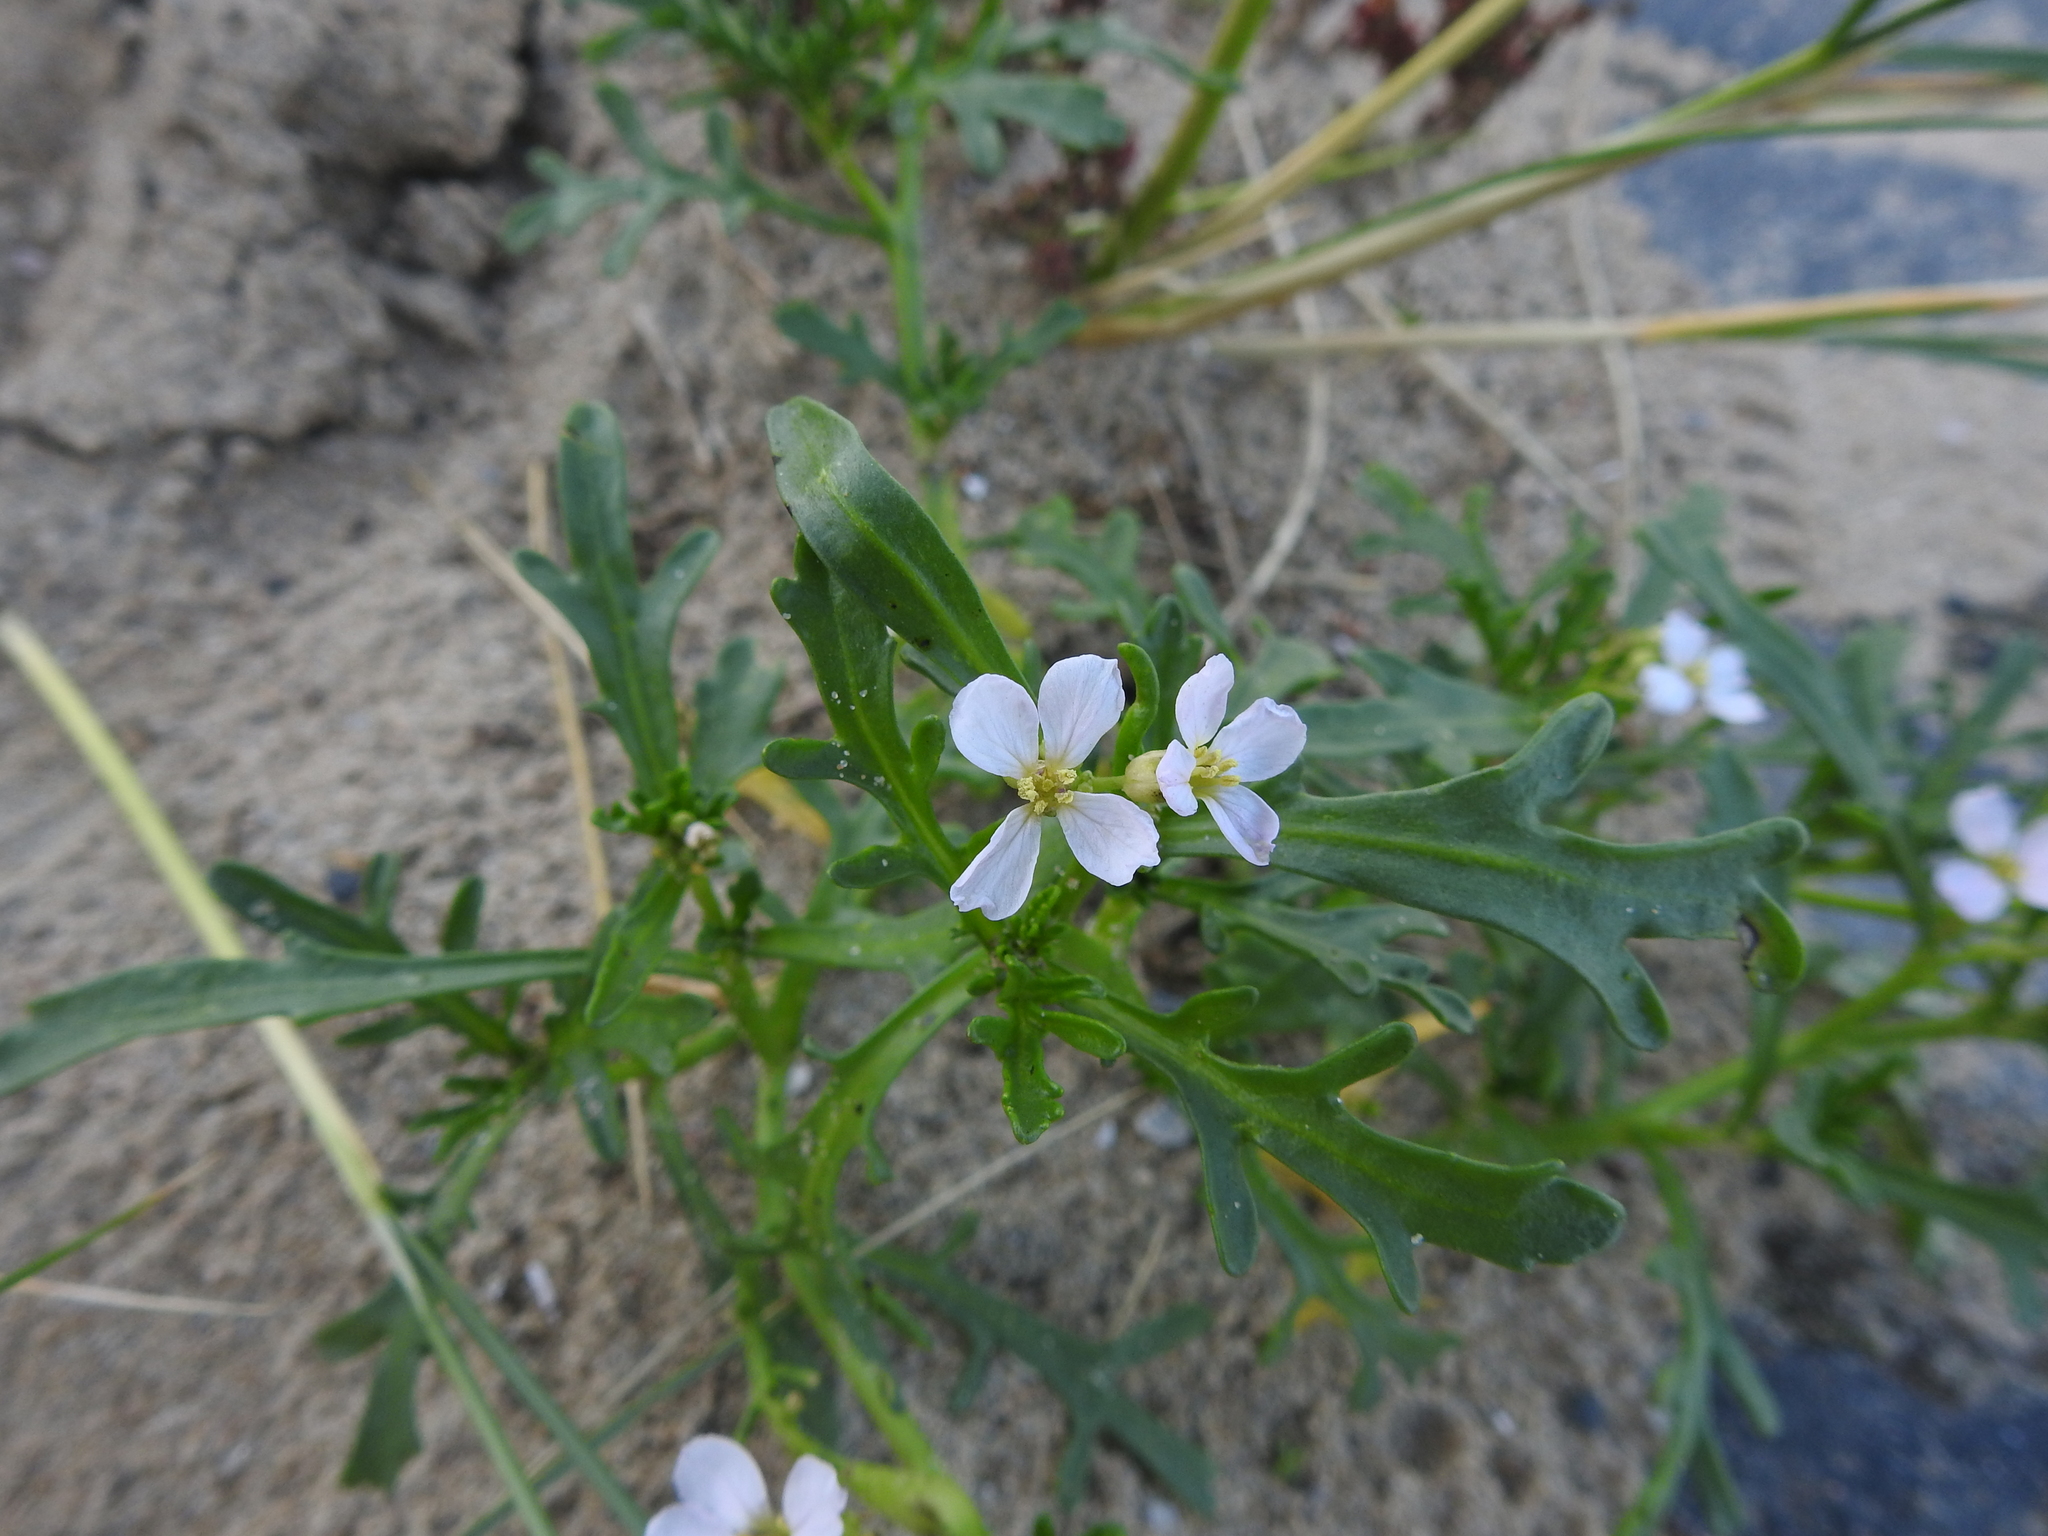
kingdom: Plantae
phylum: Tracheophyta
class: Magnoliopsida
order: Brassicales
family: Brassicaceae
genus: Cakile
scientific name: Cakile maritima
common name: Sea rocket
